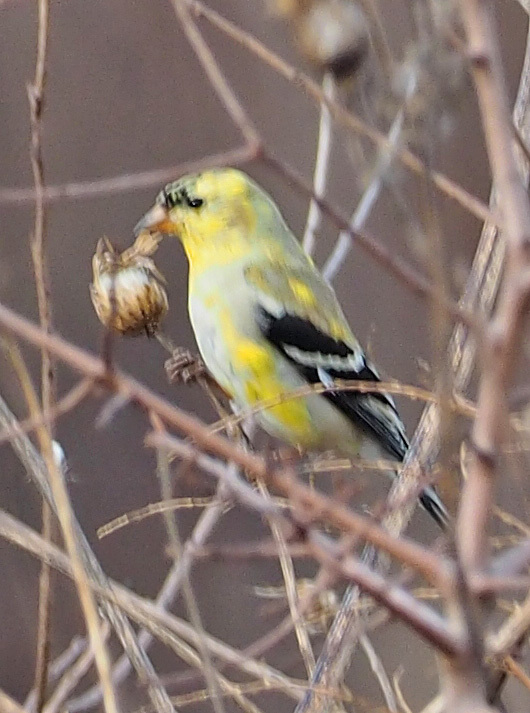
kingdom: Animalia
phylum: Chordata
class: Aves
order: Passeriformes
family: Fringillidae
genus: Spinus
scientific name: Spinus tristis
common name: American goldfinch
